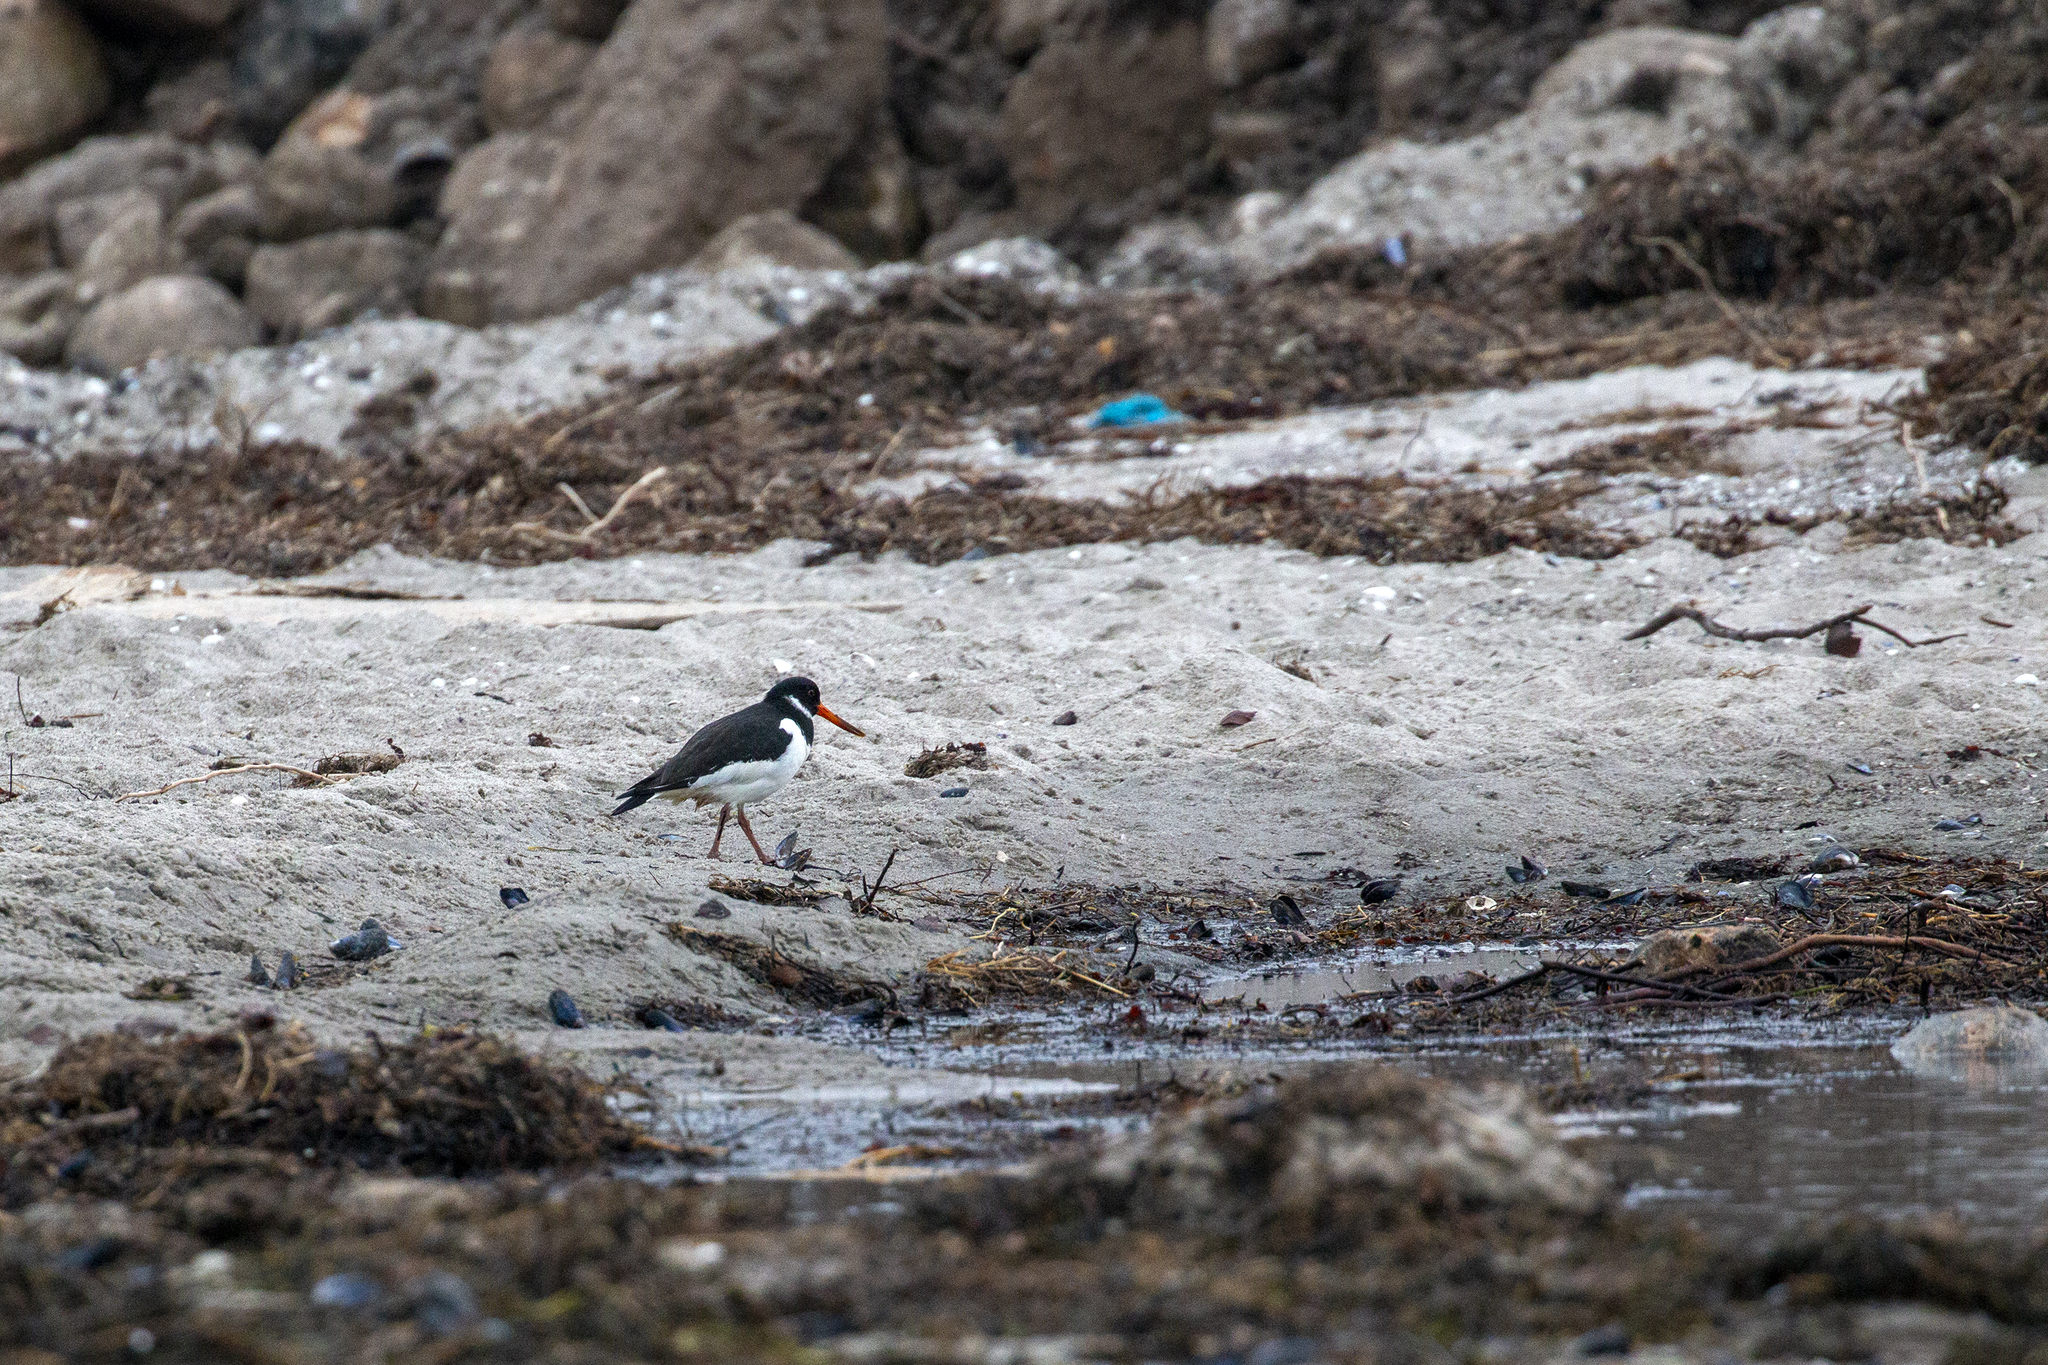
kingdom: Animalia
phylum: Chordata
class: Aves
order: Charadriiformes
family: Haematopodidae
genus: Haematopus
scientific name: Haematopus ostralegus
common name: Eurasian oystercatcher
